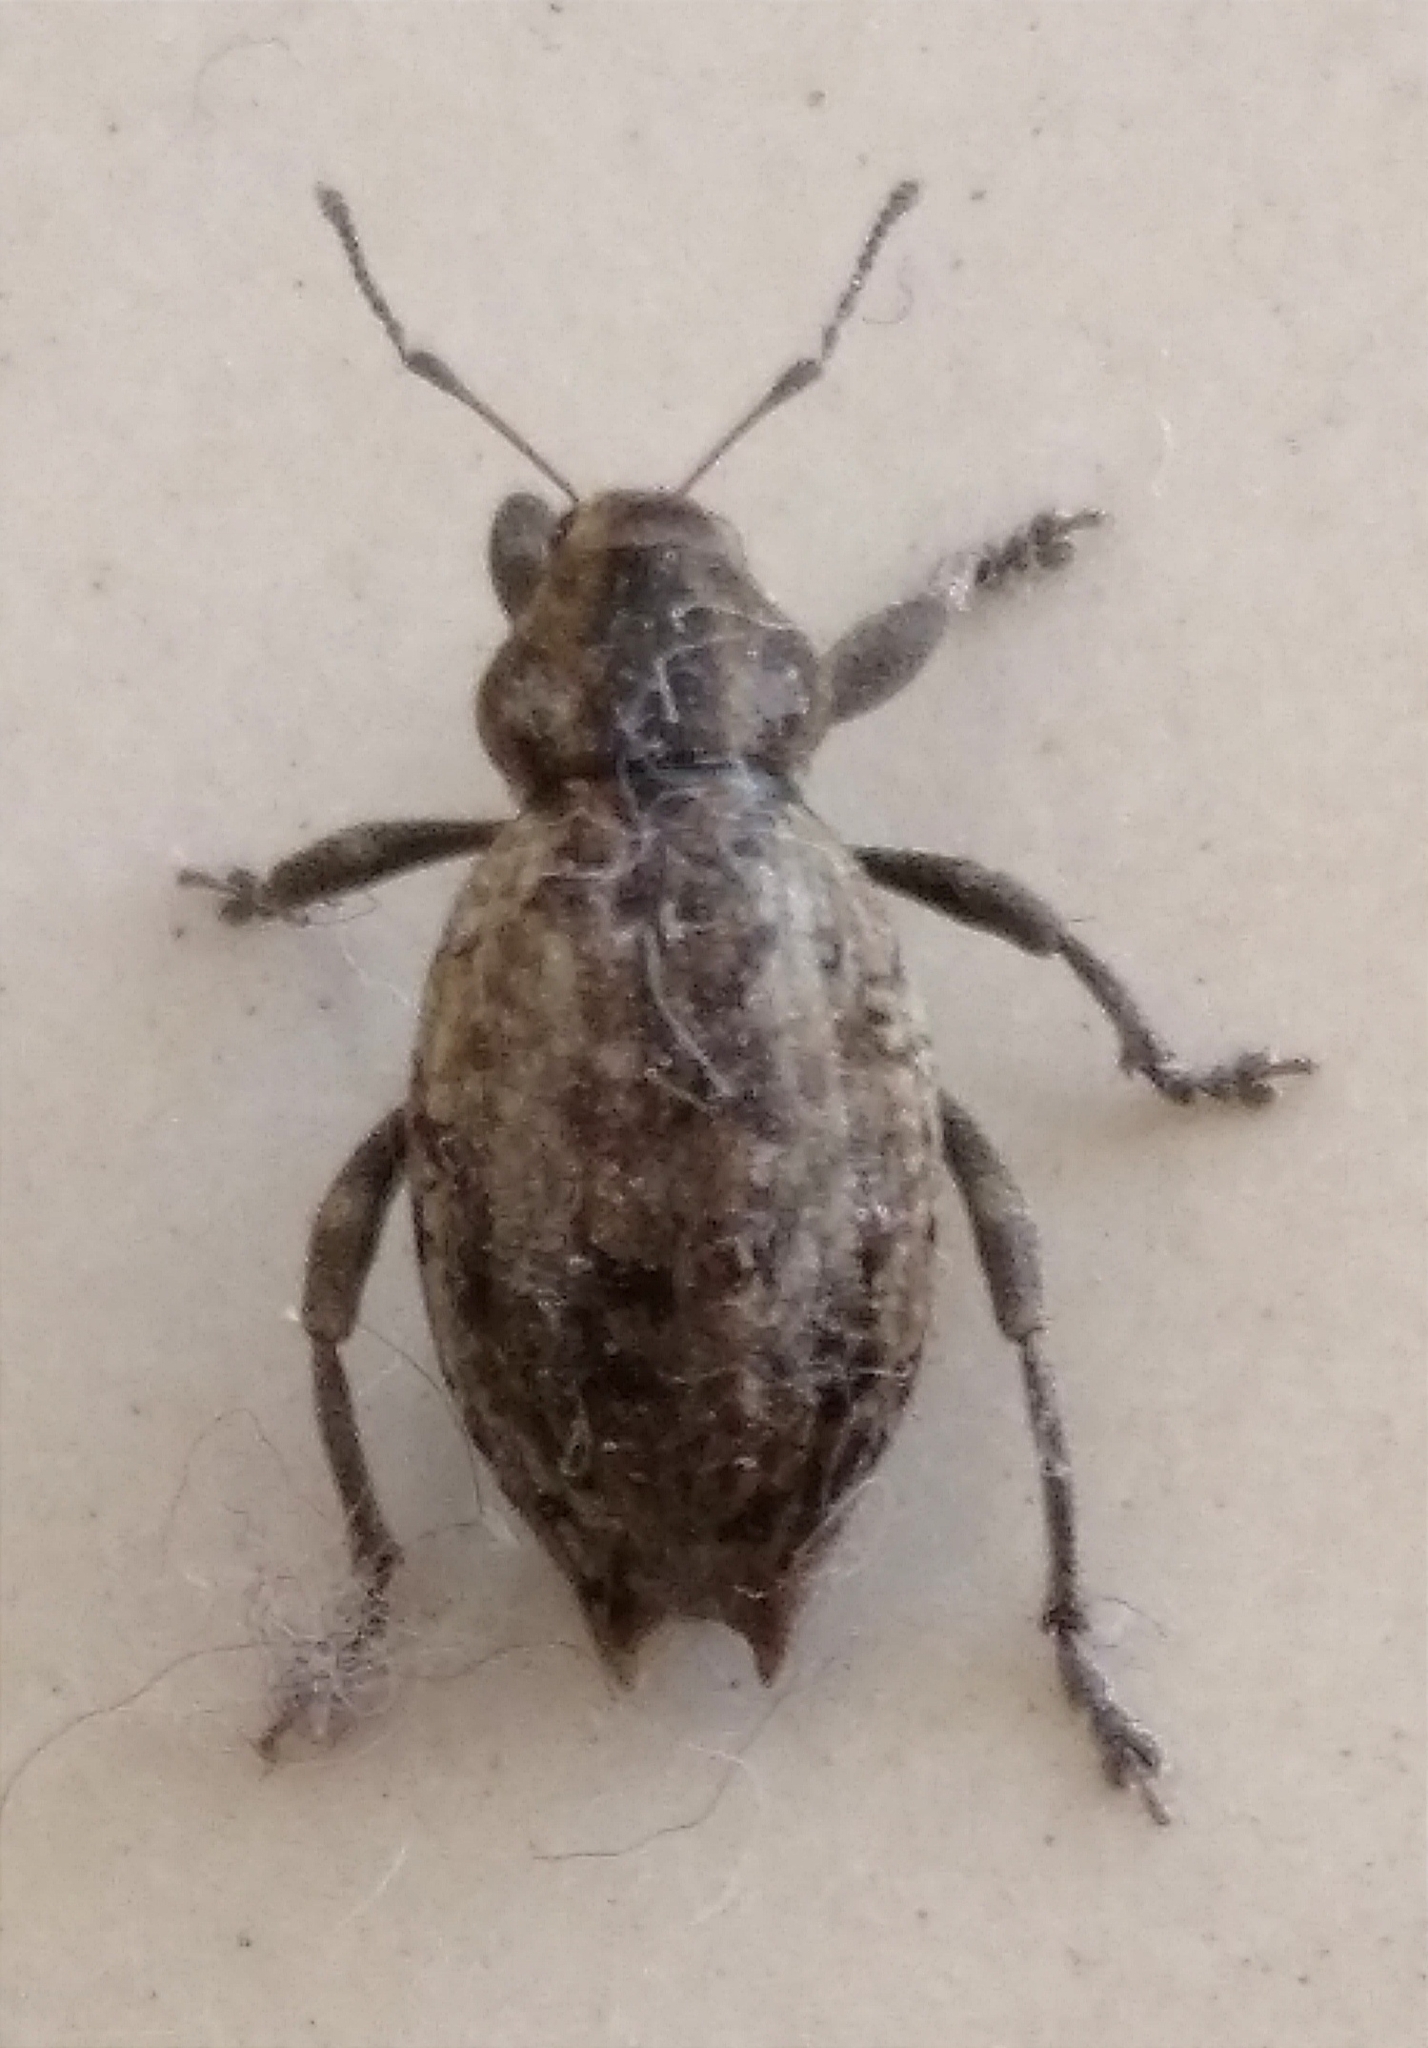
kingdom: Animalia
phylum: Arthropoda
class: Insecta
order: Coleoptera
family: Curculionidae
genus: Elytrodon
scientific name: Elytrodon bidentatus
